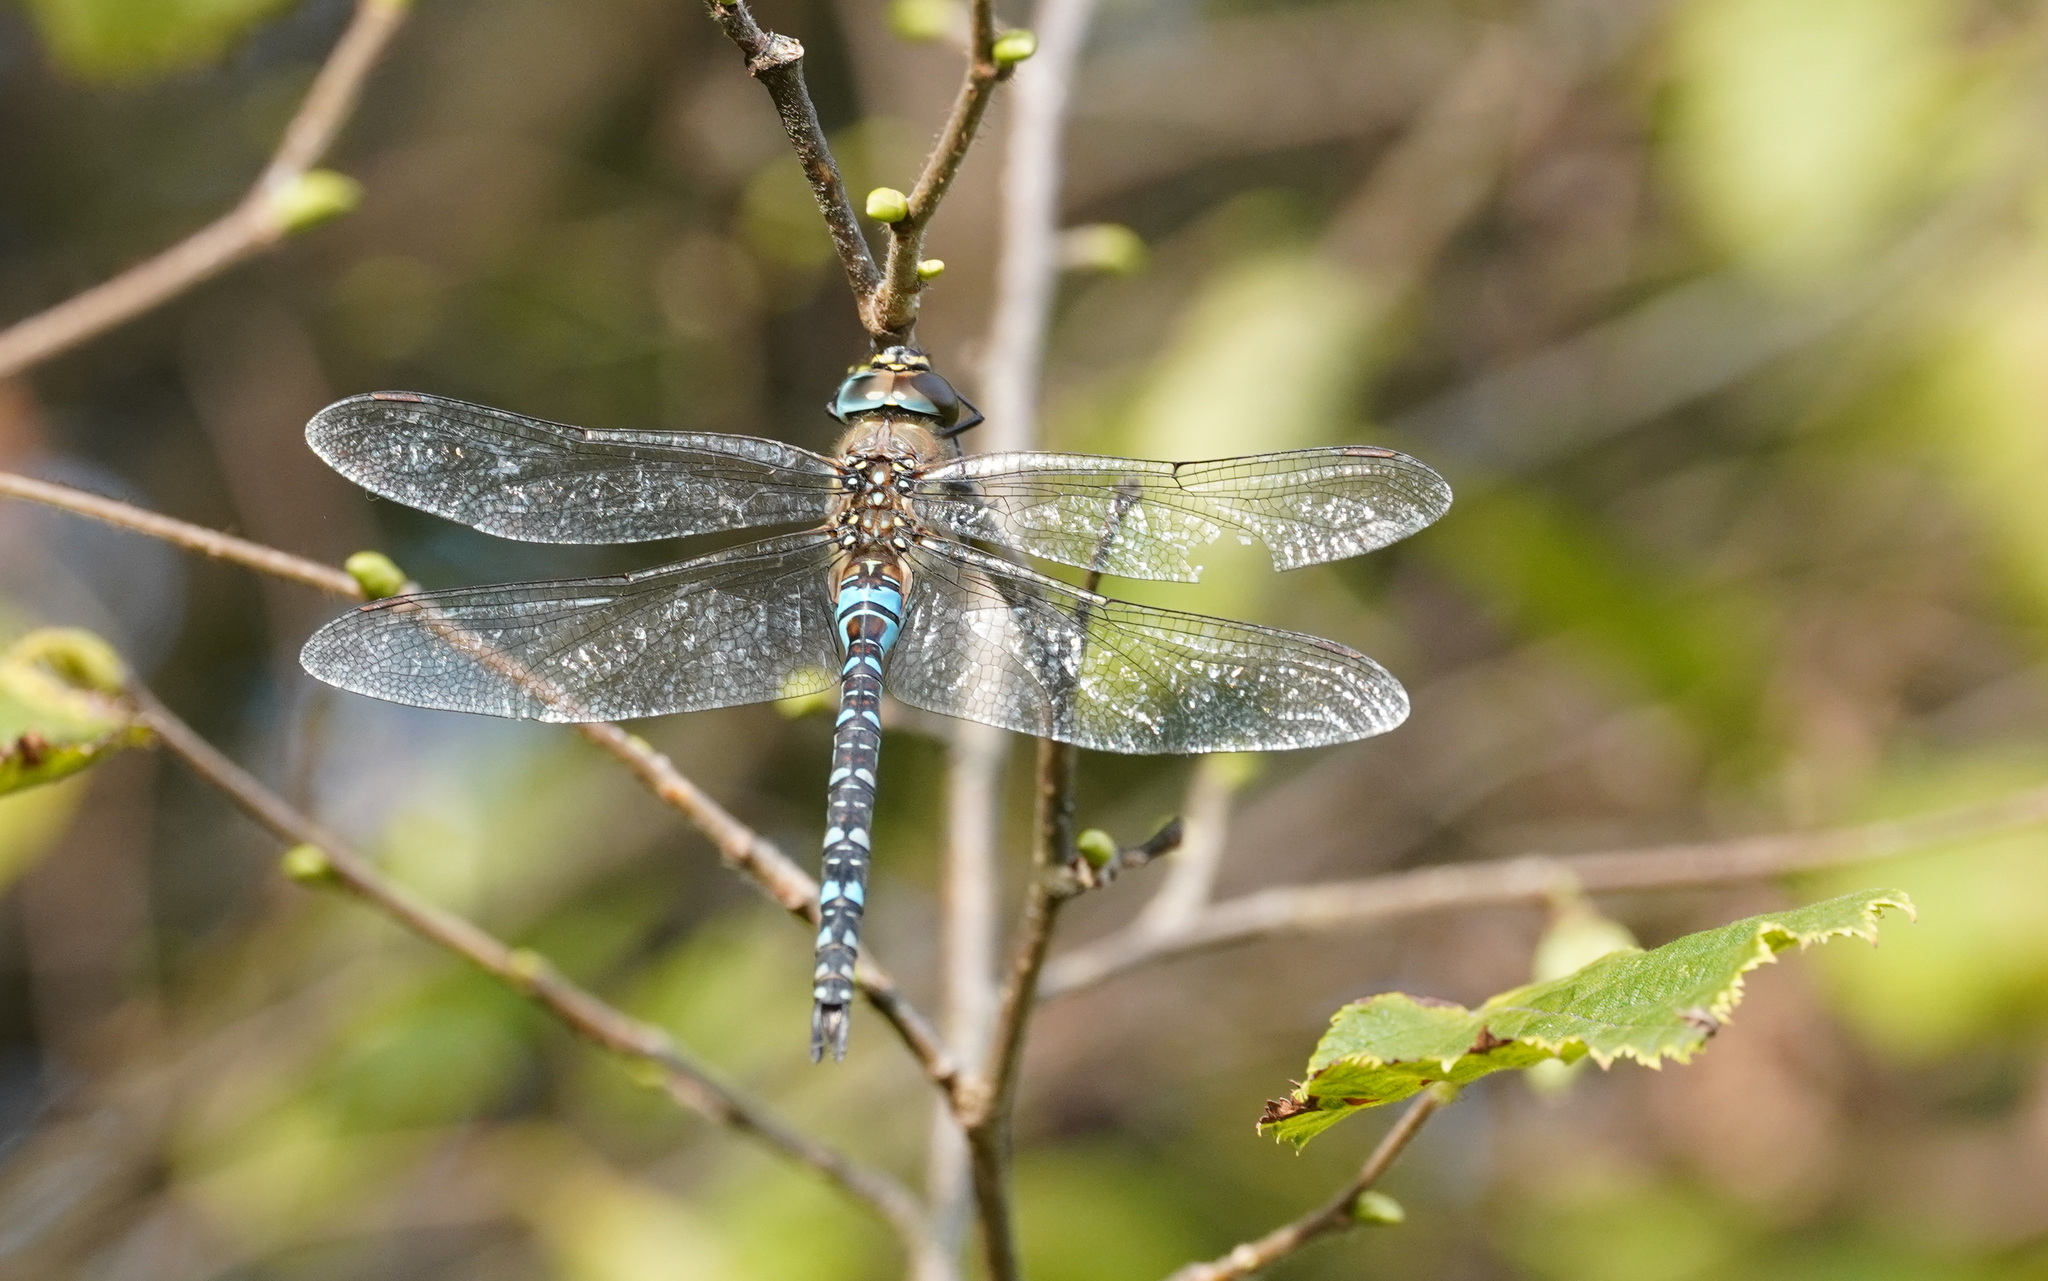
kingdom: Animalia
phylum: Arthropoda
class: Insecta
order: Odonata
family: Aeshnidae
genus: Aeshna
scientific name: Aeshna mixta
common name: Migrant hawker
